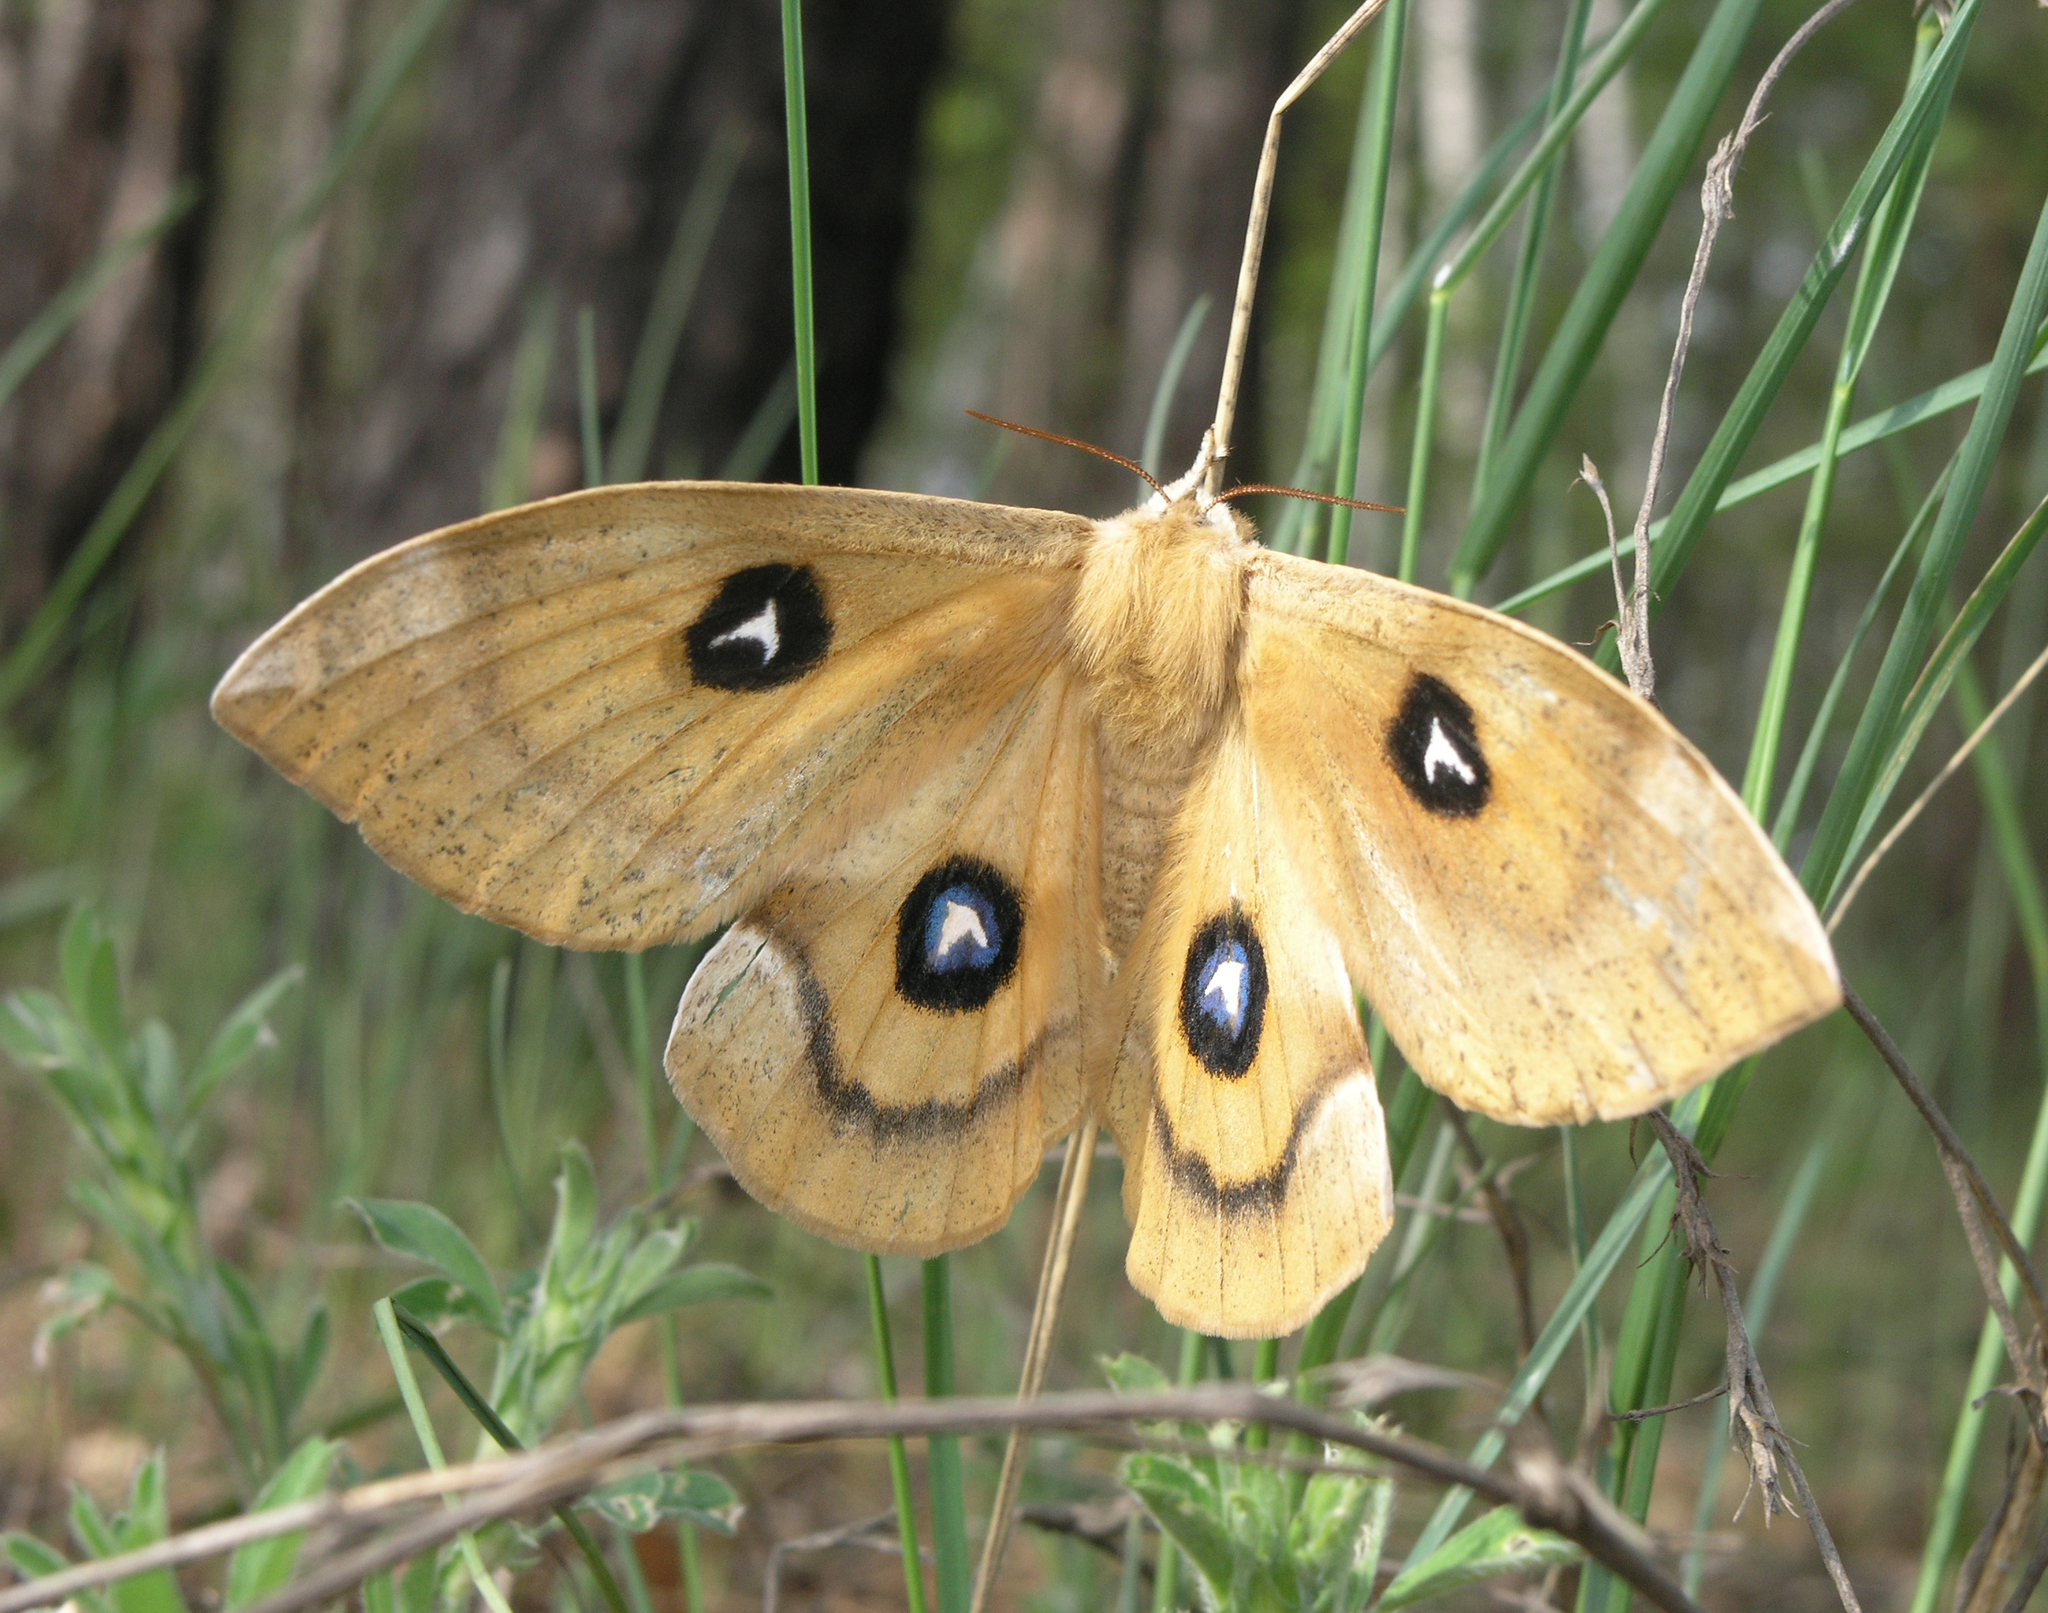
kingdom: Animalia
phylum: Arthropoda
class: Insecta
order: Lepidoptera
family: Saturniidae
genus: Aglia
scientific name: Aglia tau
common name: Tau emperor
